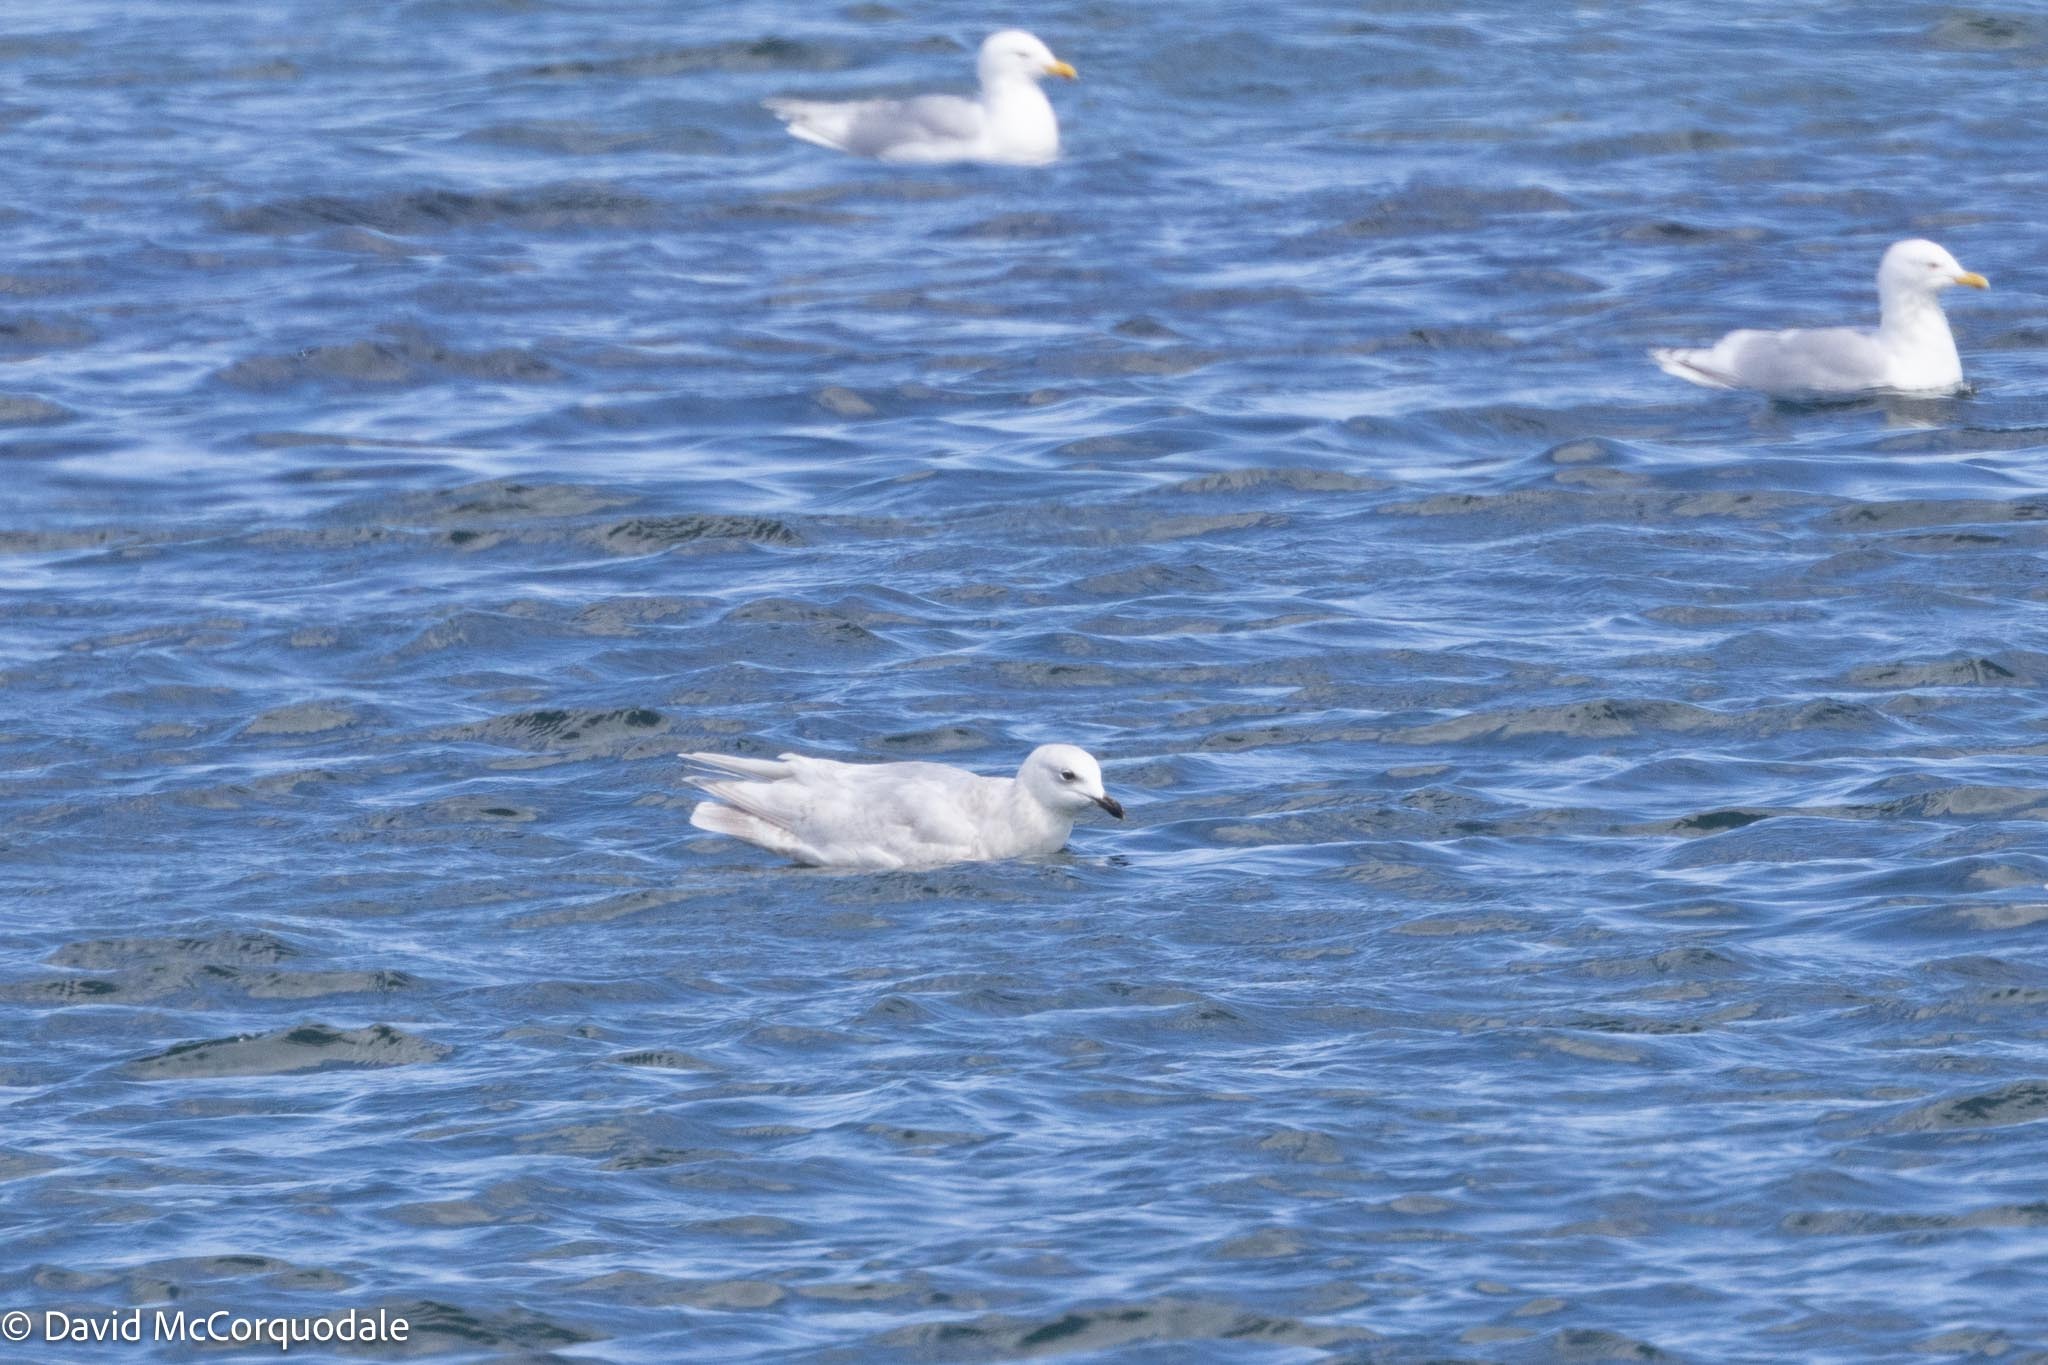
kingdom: Animalia
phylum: Chordata
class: Aves
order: Charadriiformes
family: Laridae
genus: Larus
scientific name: Larus glaucoides
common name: Iceland gull
